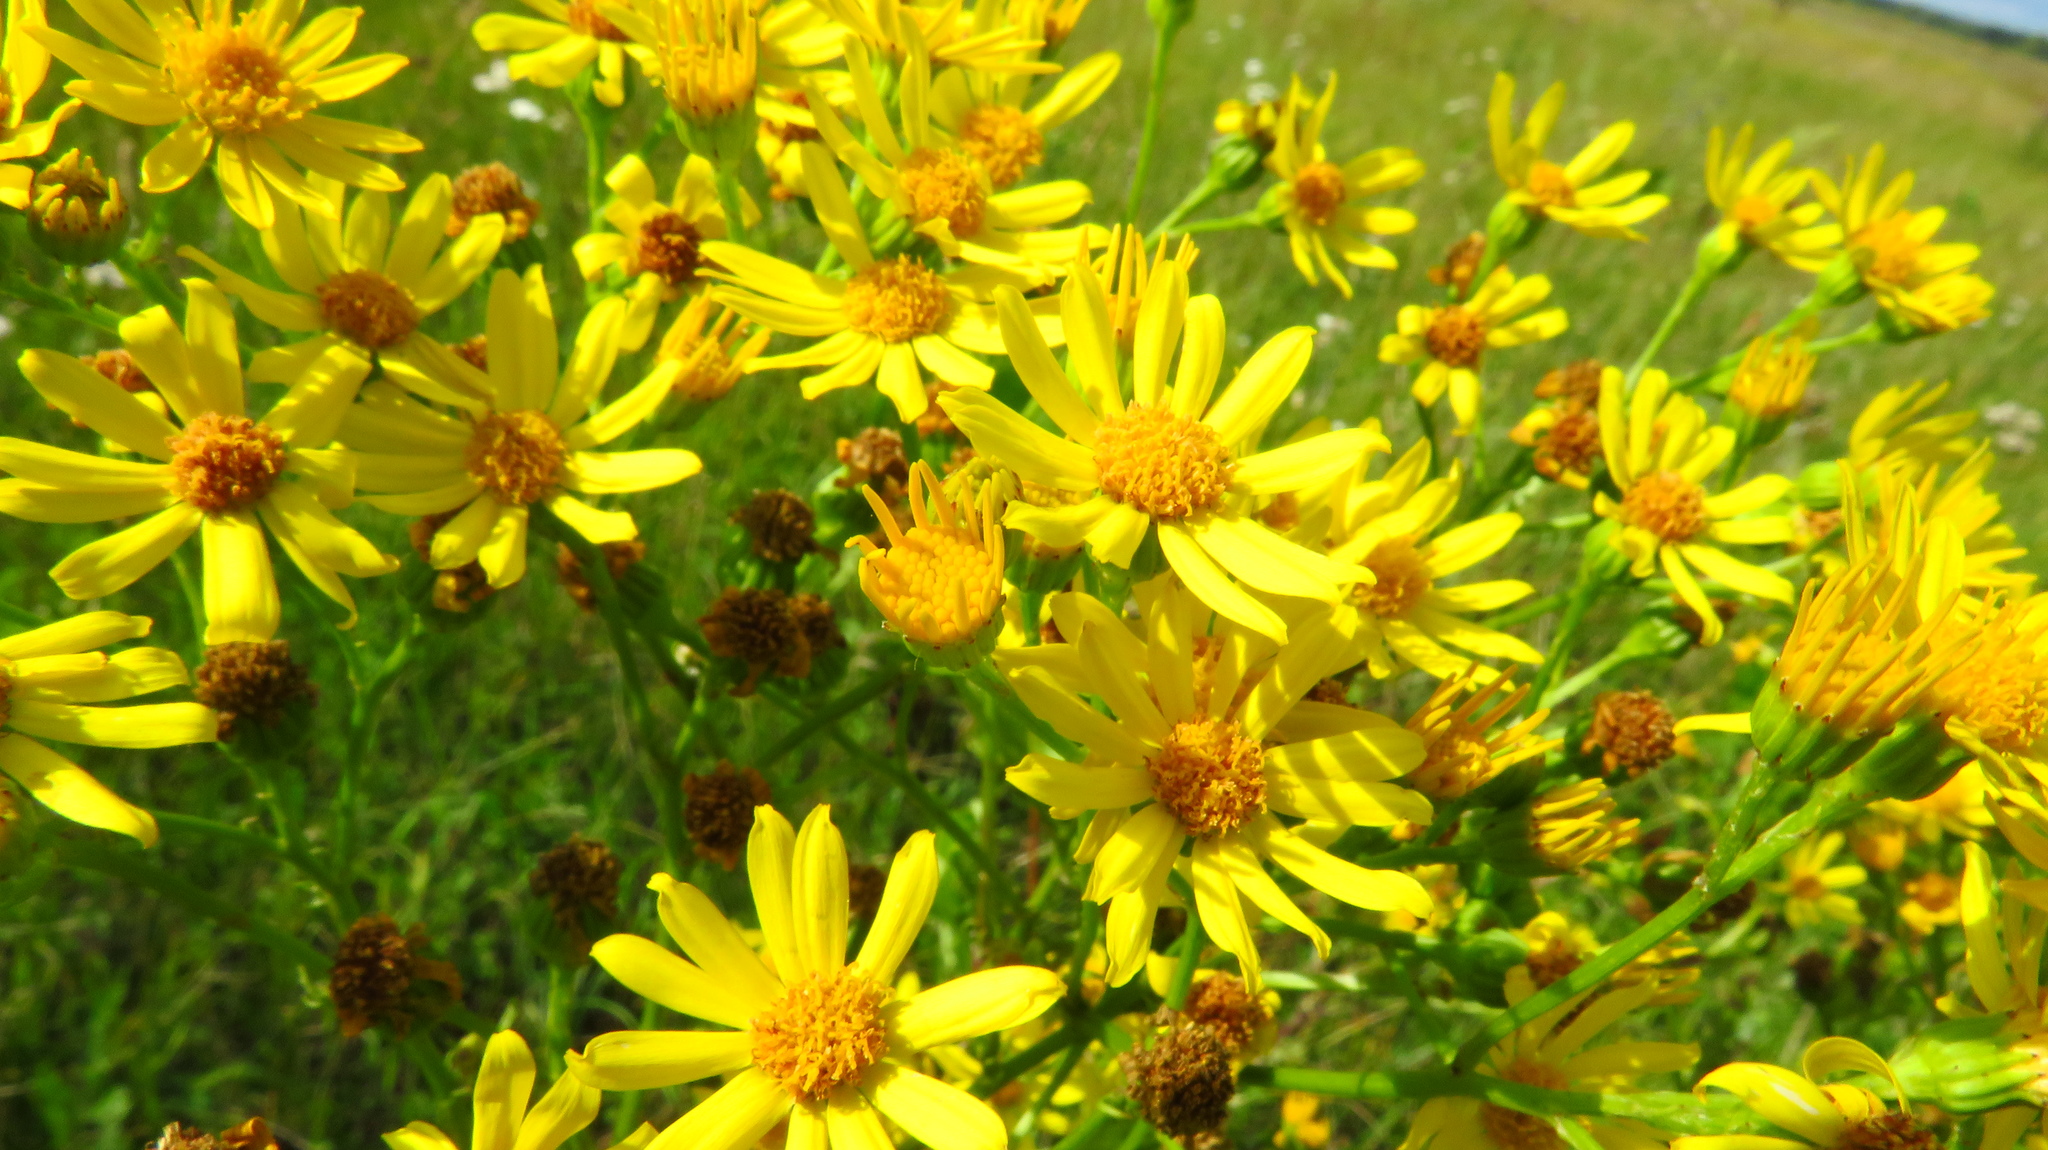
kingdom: Plantae
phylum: Tracheophyta
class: Magnoliopsida
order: Asterales
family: Asteraceae
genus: Jacobaea
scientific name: Jacobaea vulgaris
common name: Stinking willie
